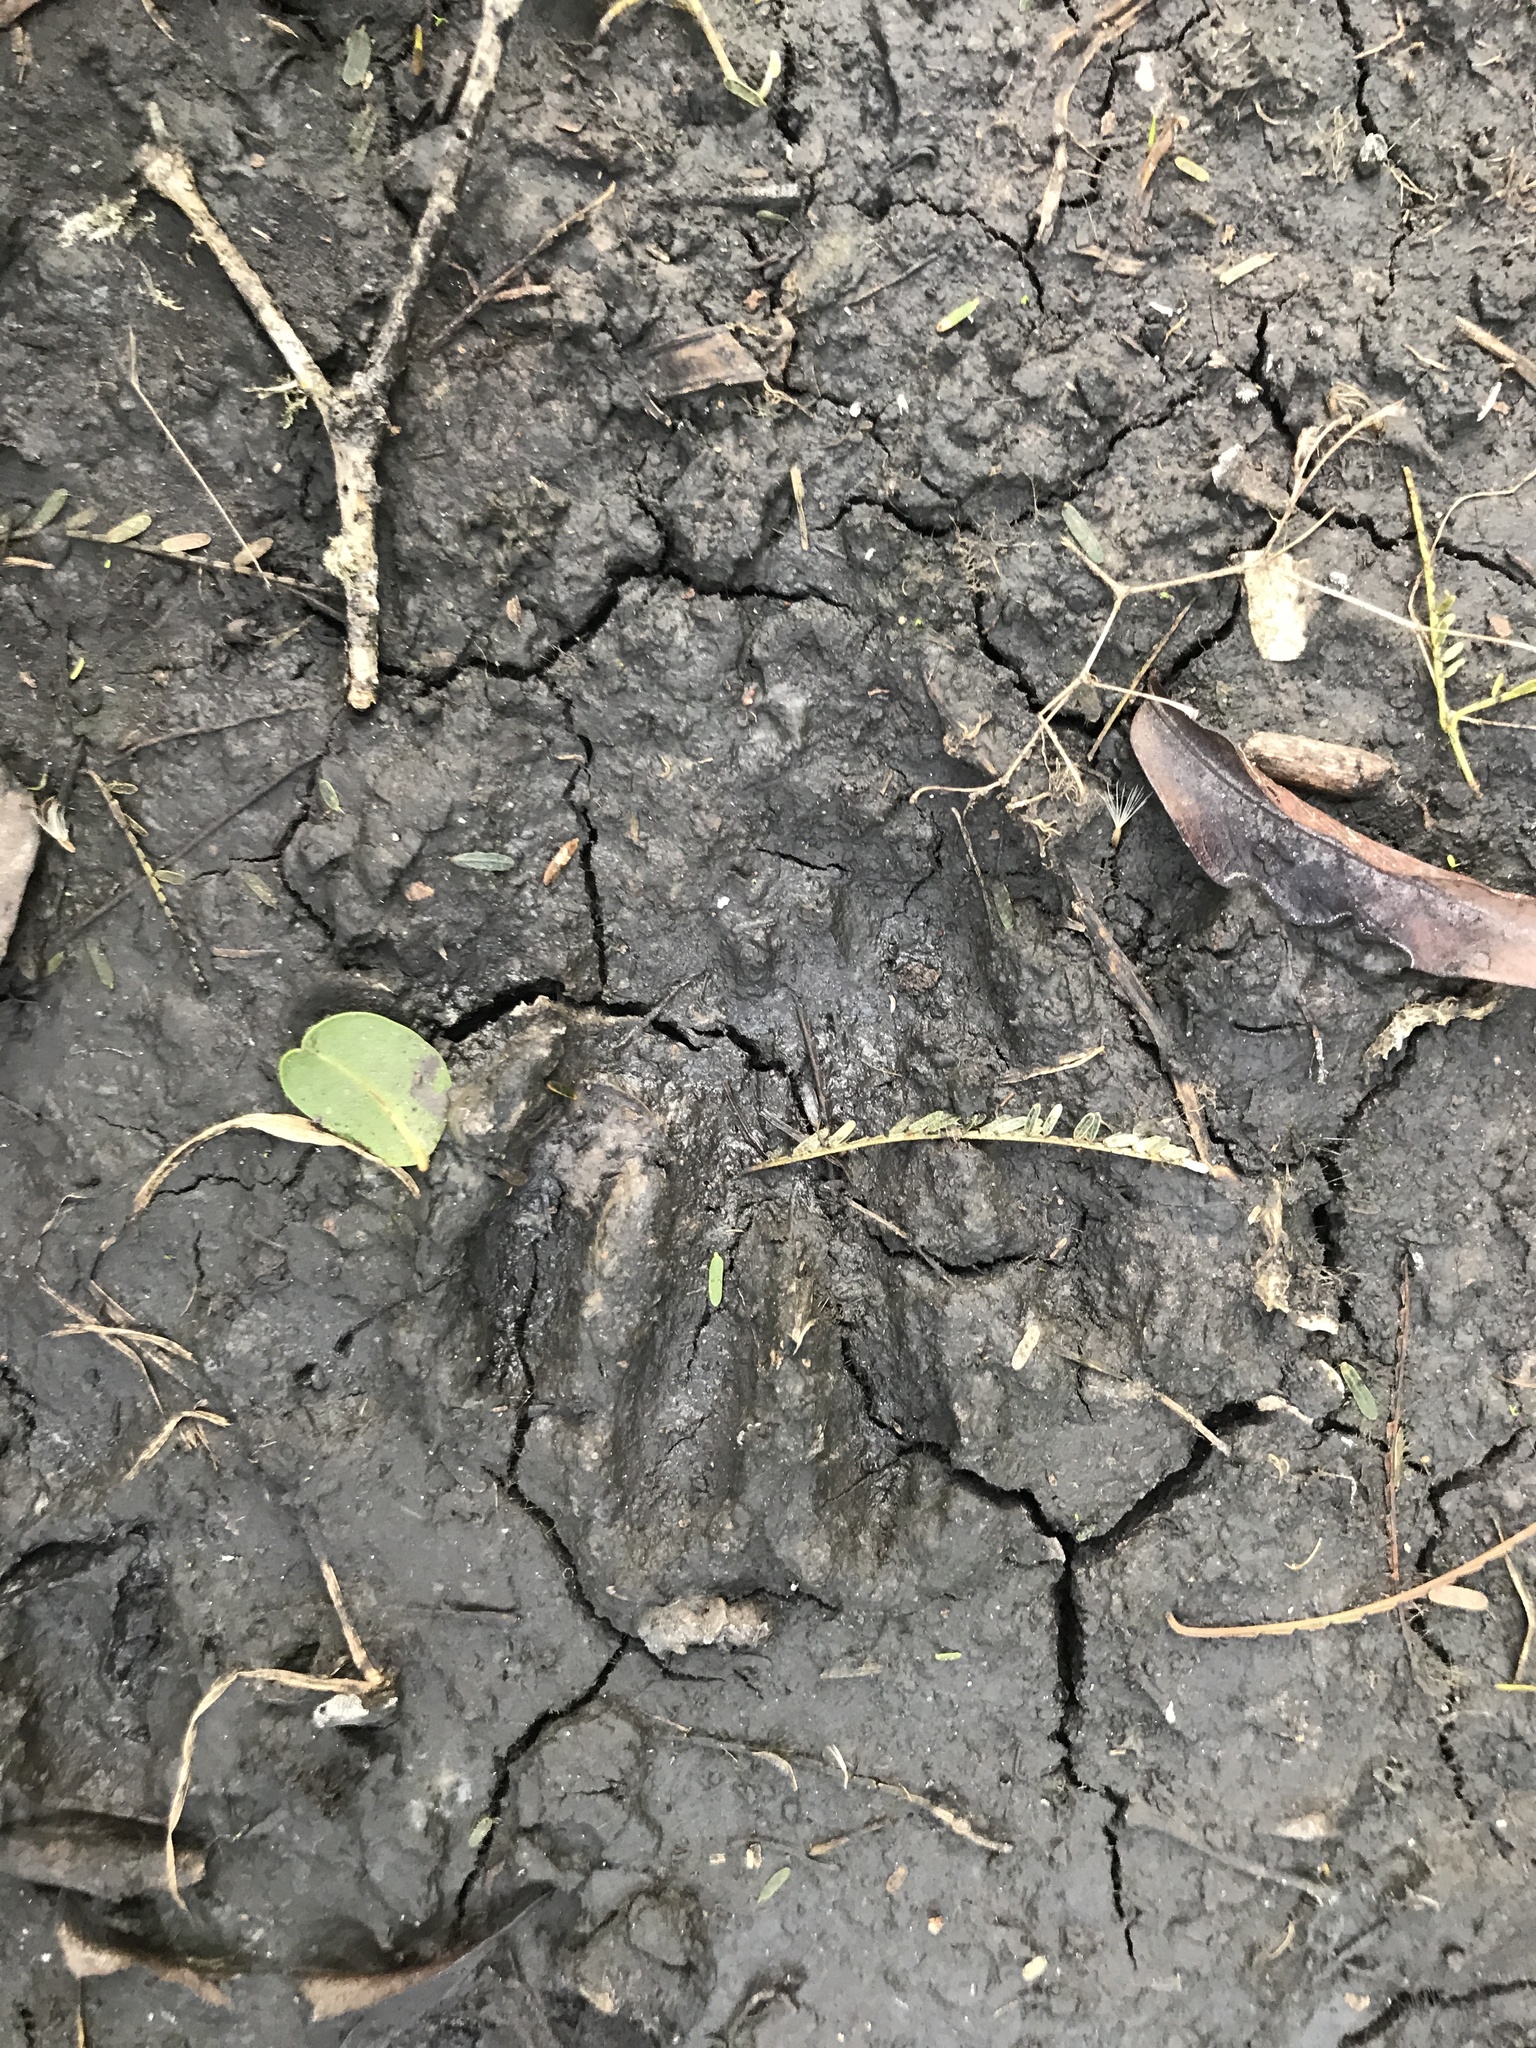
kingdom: Animalia
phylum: Chordata
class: Mammalia
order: Carnivora
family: Procyonidae
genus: Procyon
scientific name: Procyon cancrivorus
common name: Crab-eating raccoon
